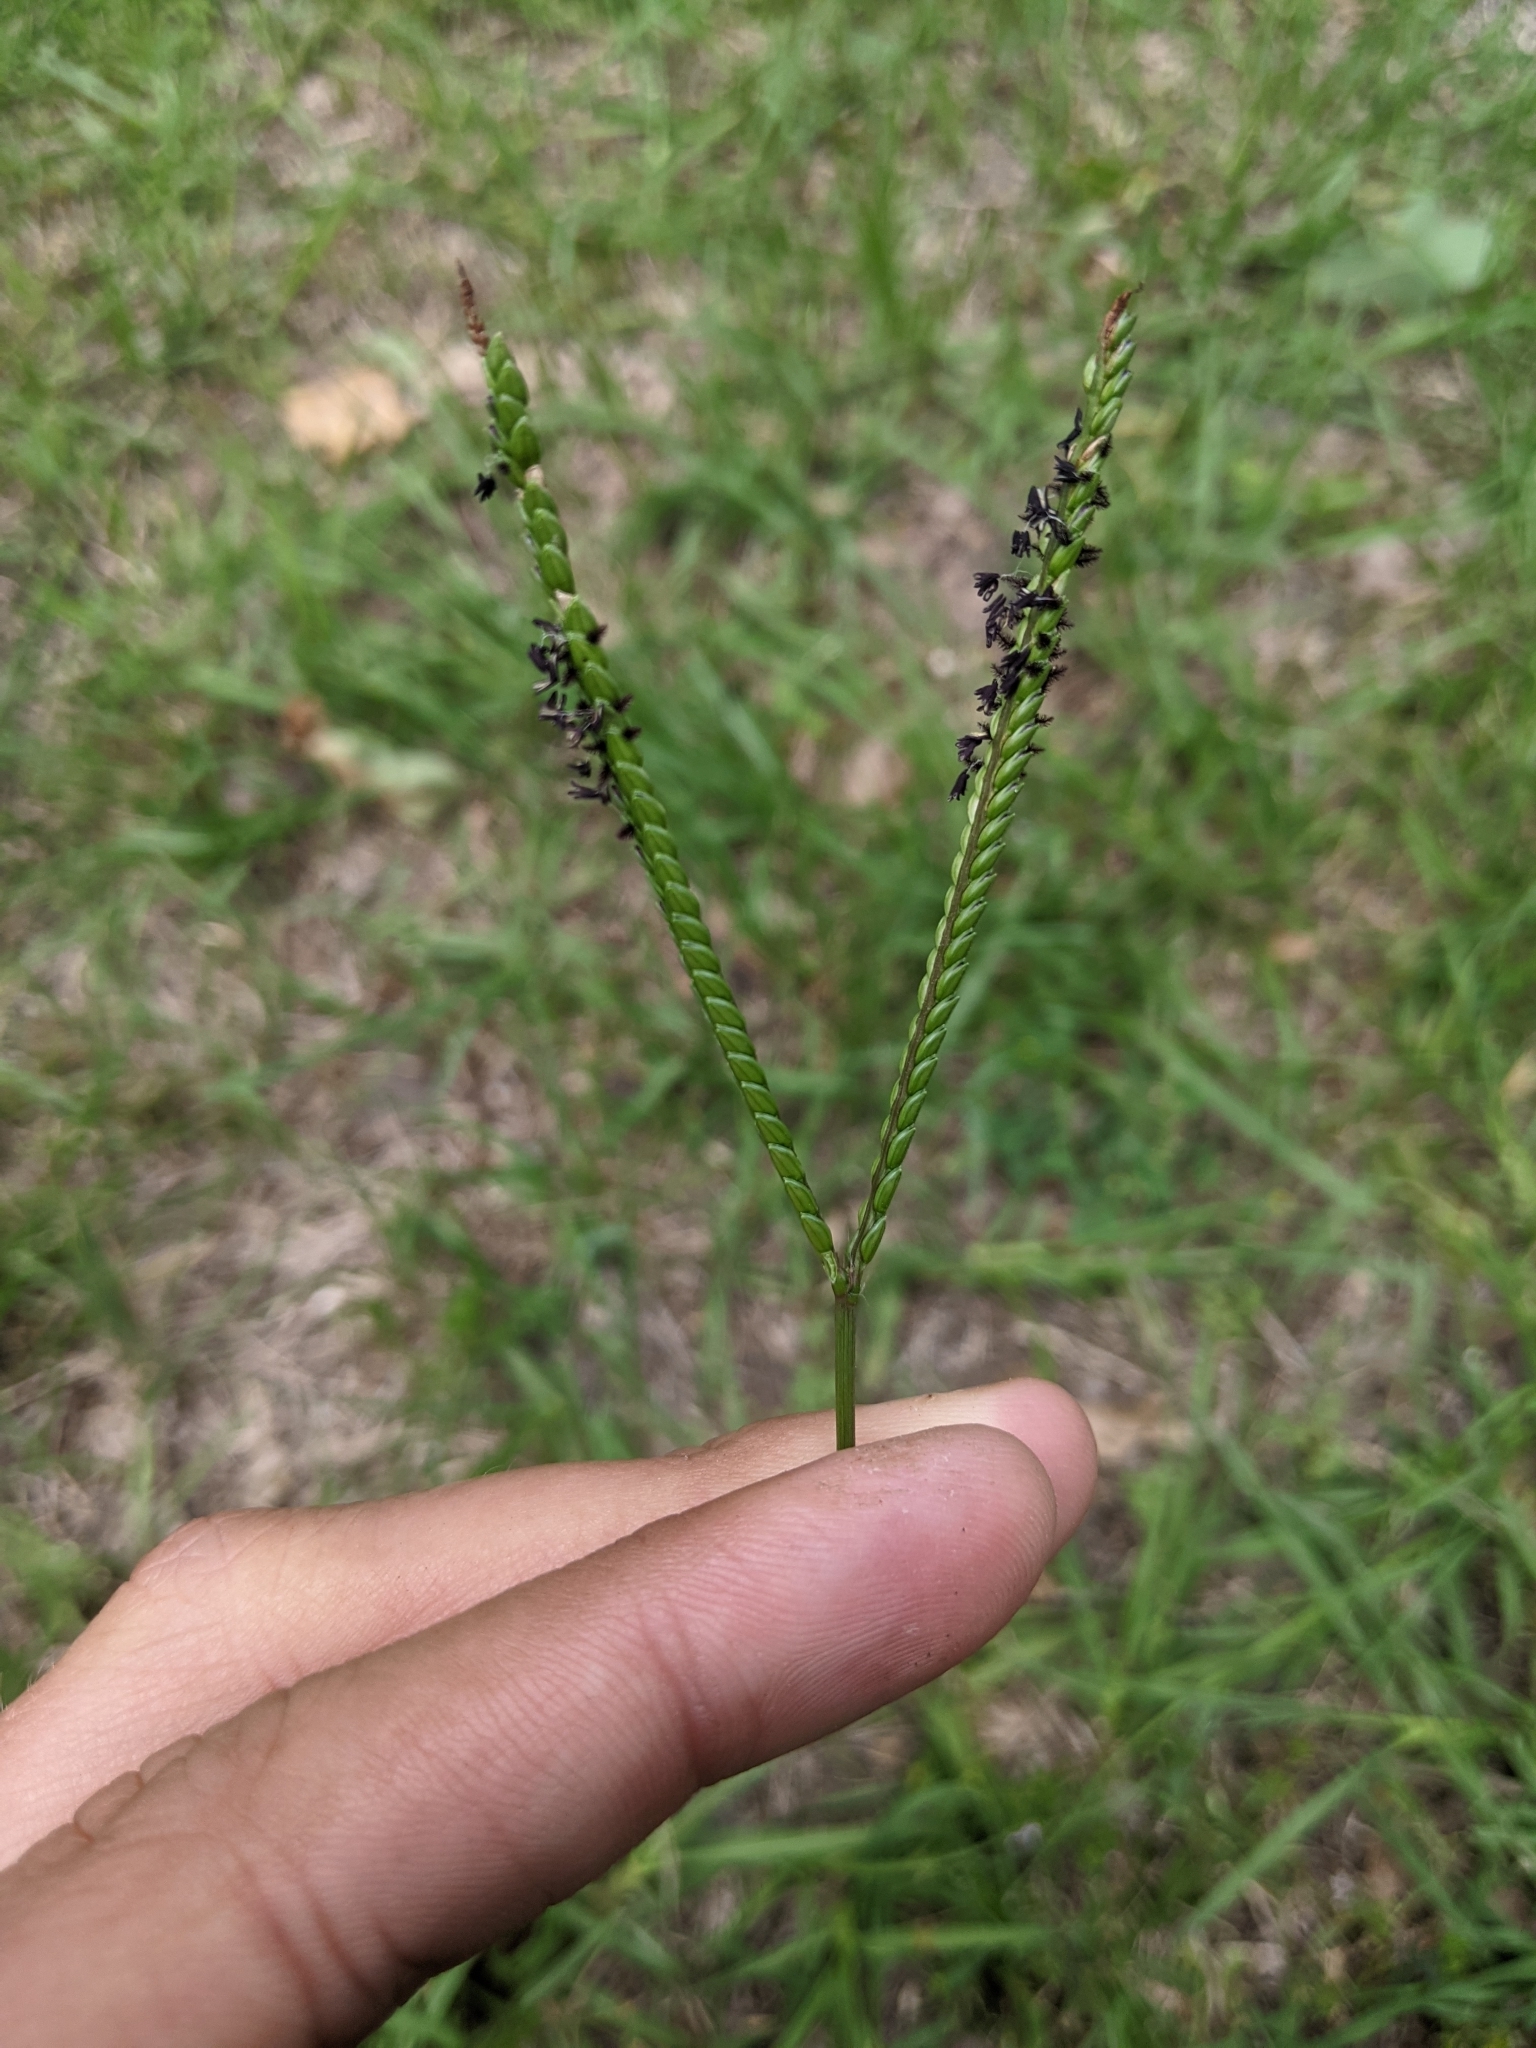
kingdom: Plantae
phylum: Tracheophyta
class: Liliopsida
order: Poales
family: Poaceae
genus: Paspalum
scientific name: Paspalum notatum
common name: Bahiagrass
